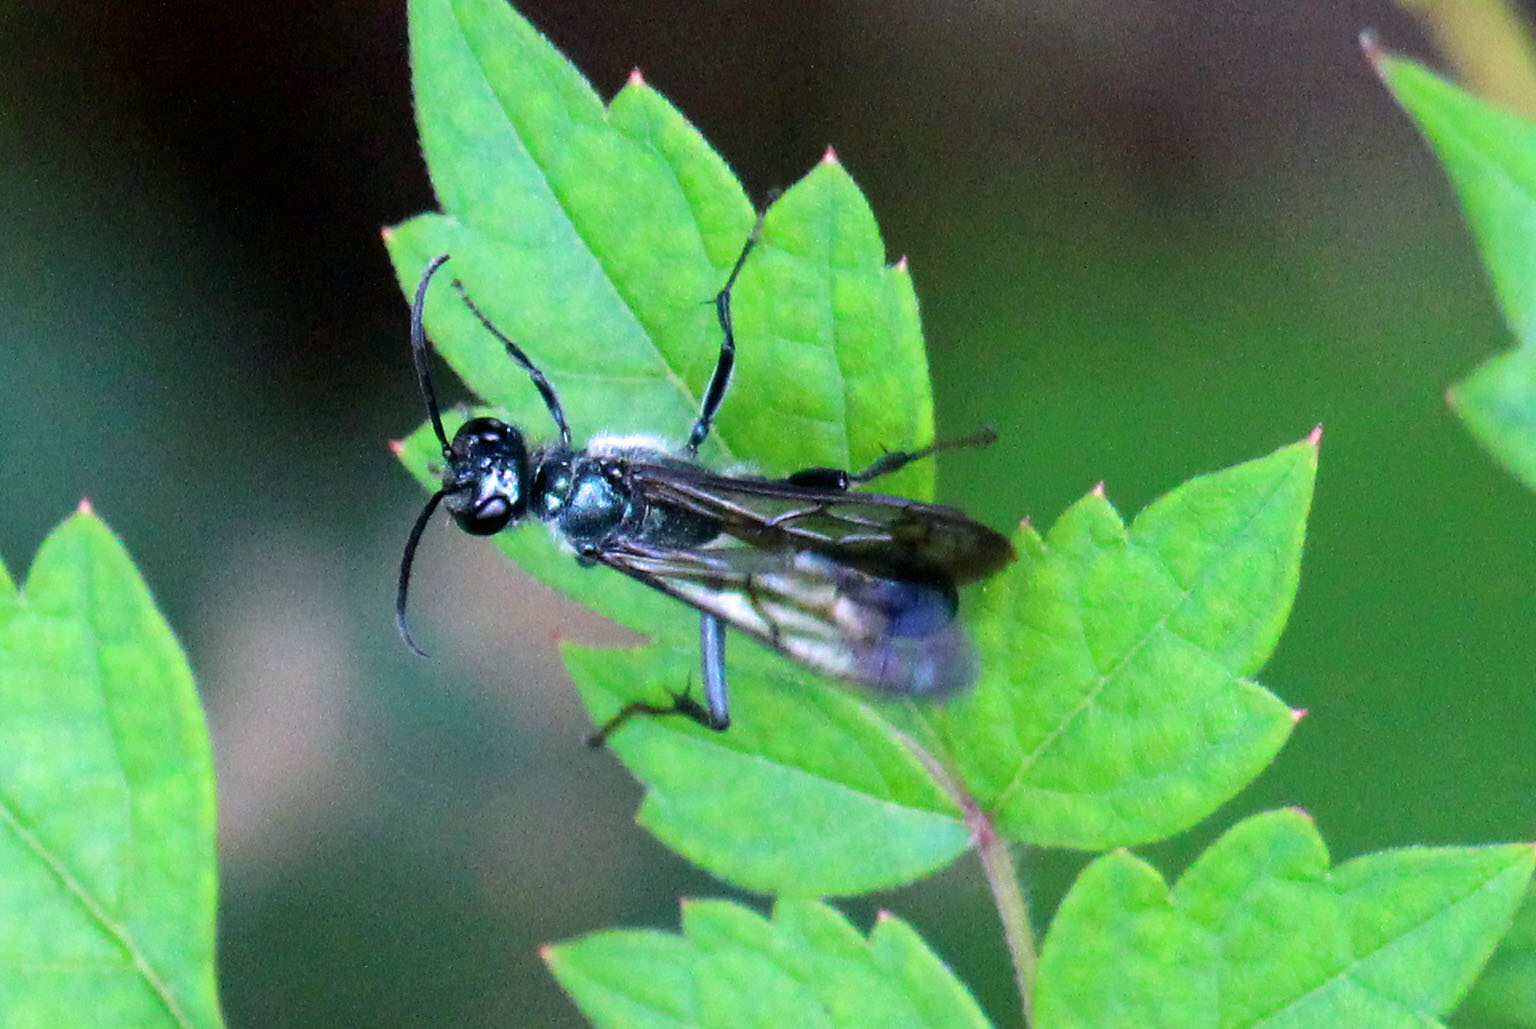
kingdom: Animalia
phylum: Arthropoda
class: Insecta
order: Hymenoptera
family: Sphecidae
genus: Chalybion
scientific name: Chalybion zimmermanni
